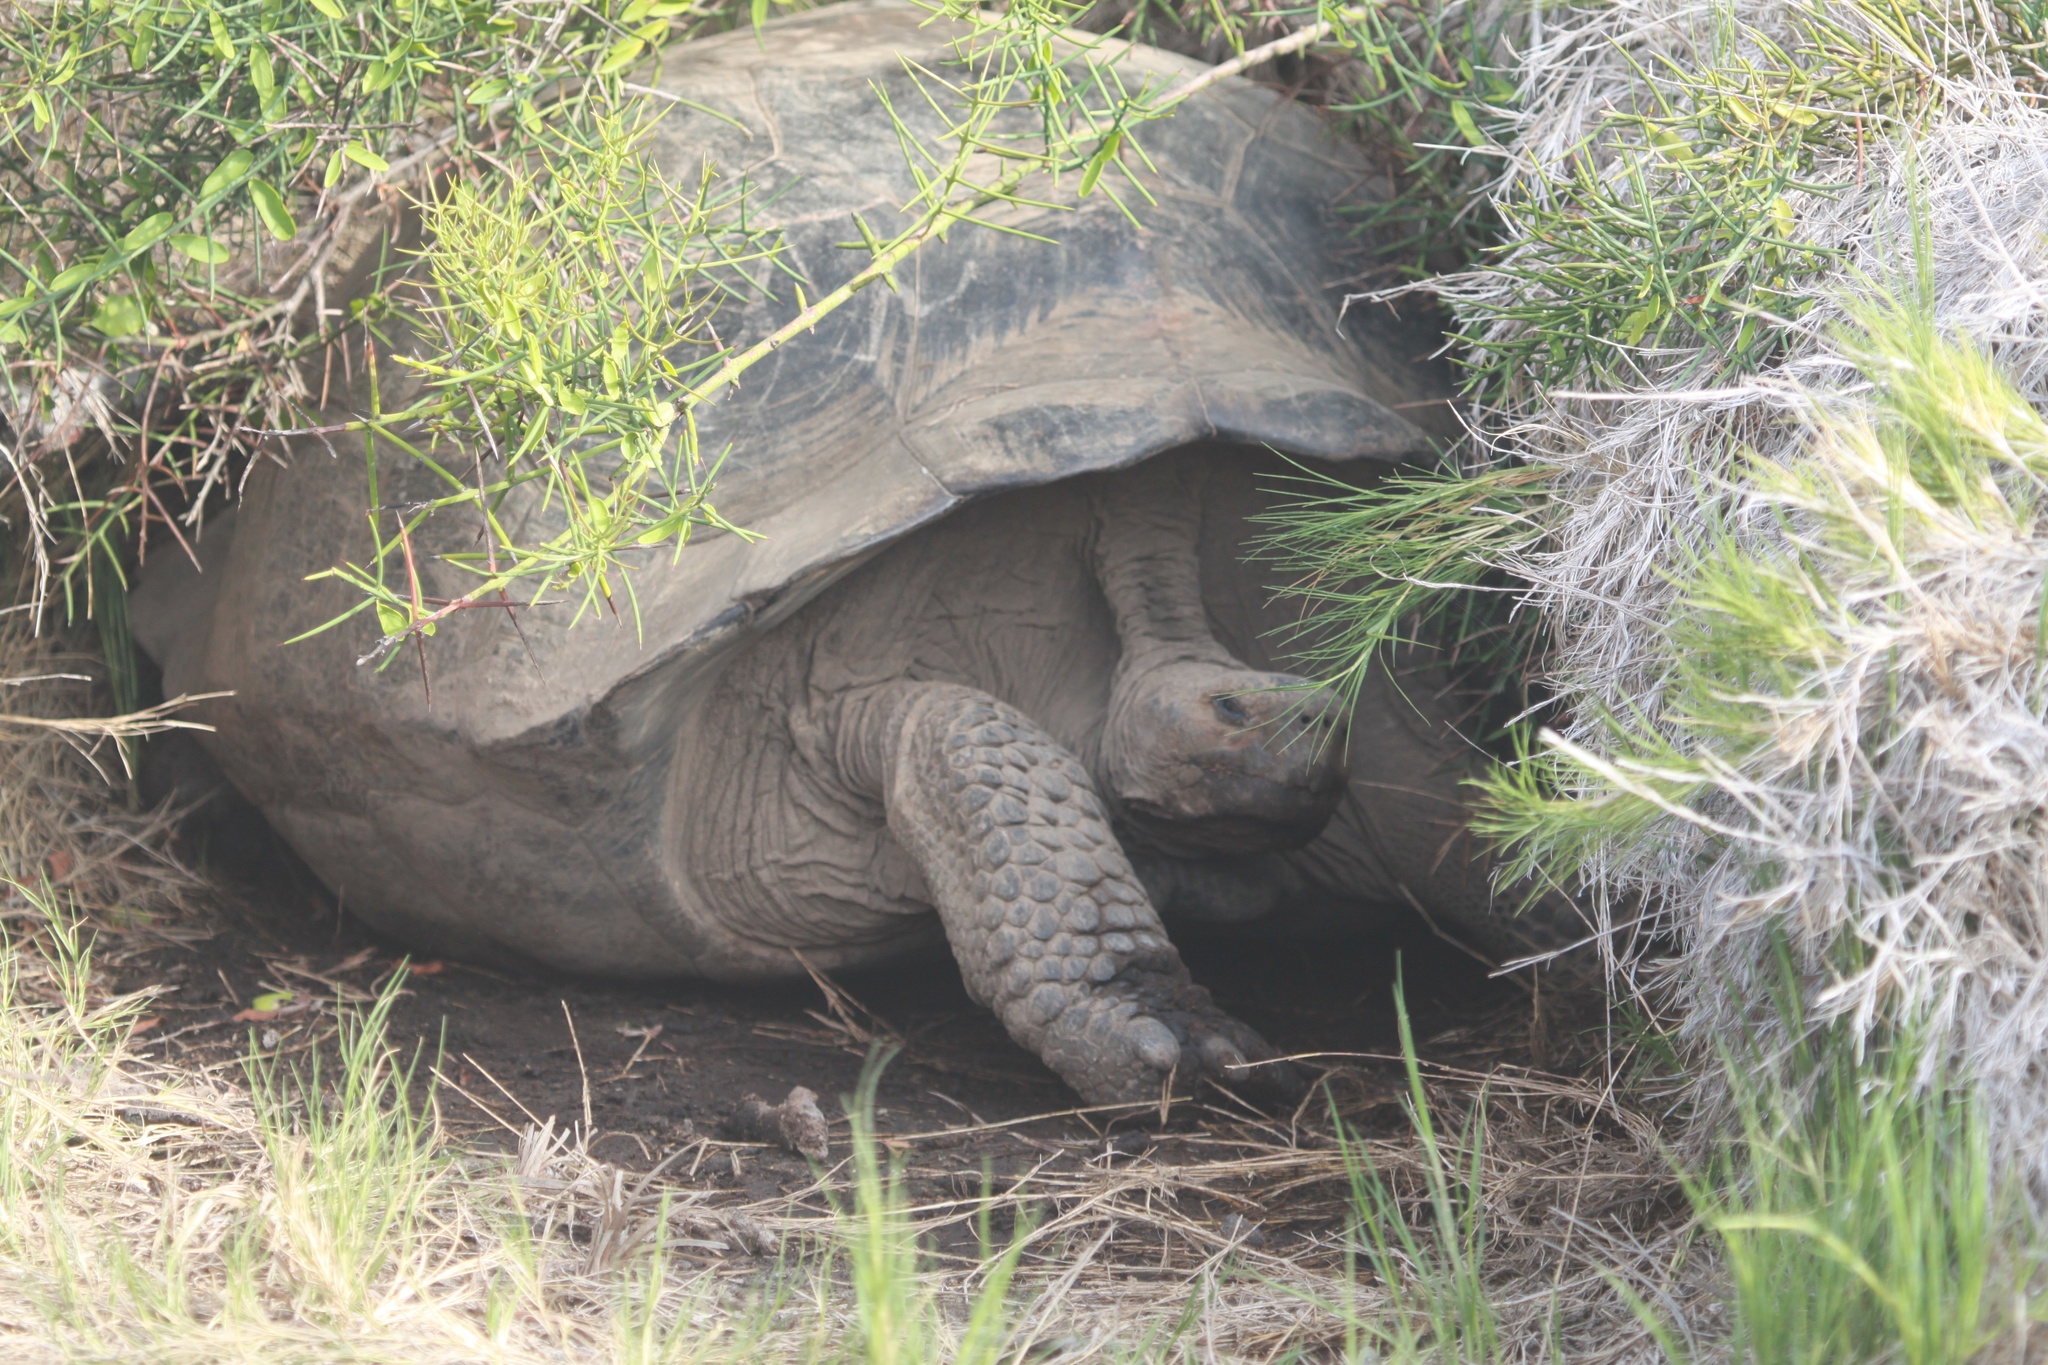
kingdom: Animalia
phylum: Chordata
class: Testudines
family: Testudinidae
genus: Chelonoidis
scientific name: Chelonoidis vandenburghi
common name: Alcedo volcano giant tortoise
